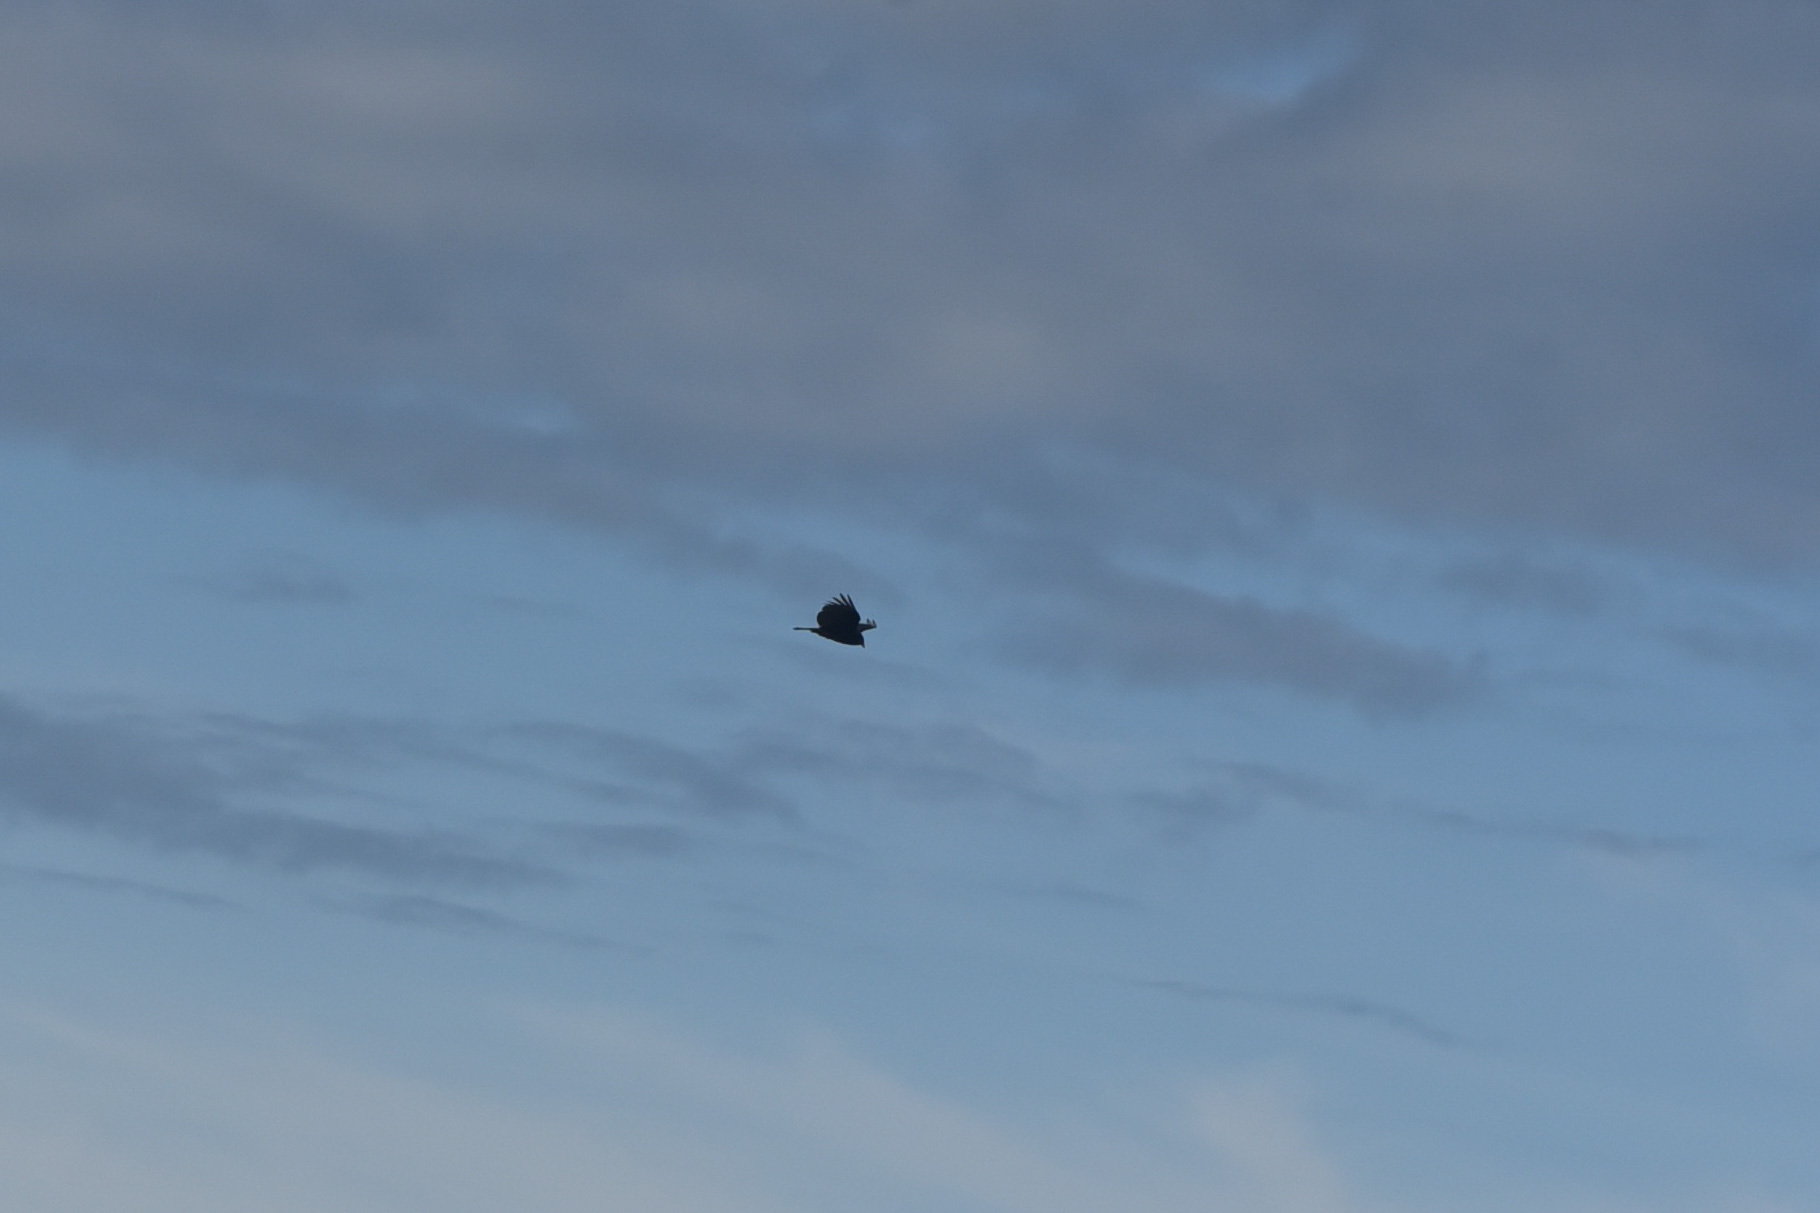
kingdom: Animalia
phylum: Chordata
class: Aves
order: Accipitriformes
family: Cathartidae
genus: Cathartes
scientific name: Cathartes aura
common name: Turkey vulture
